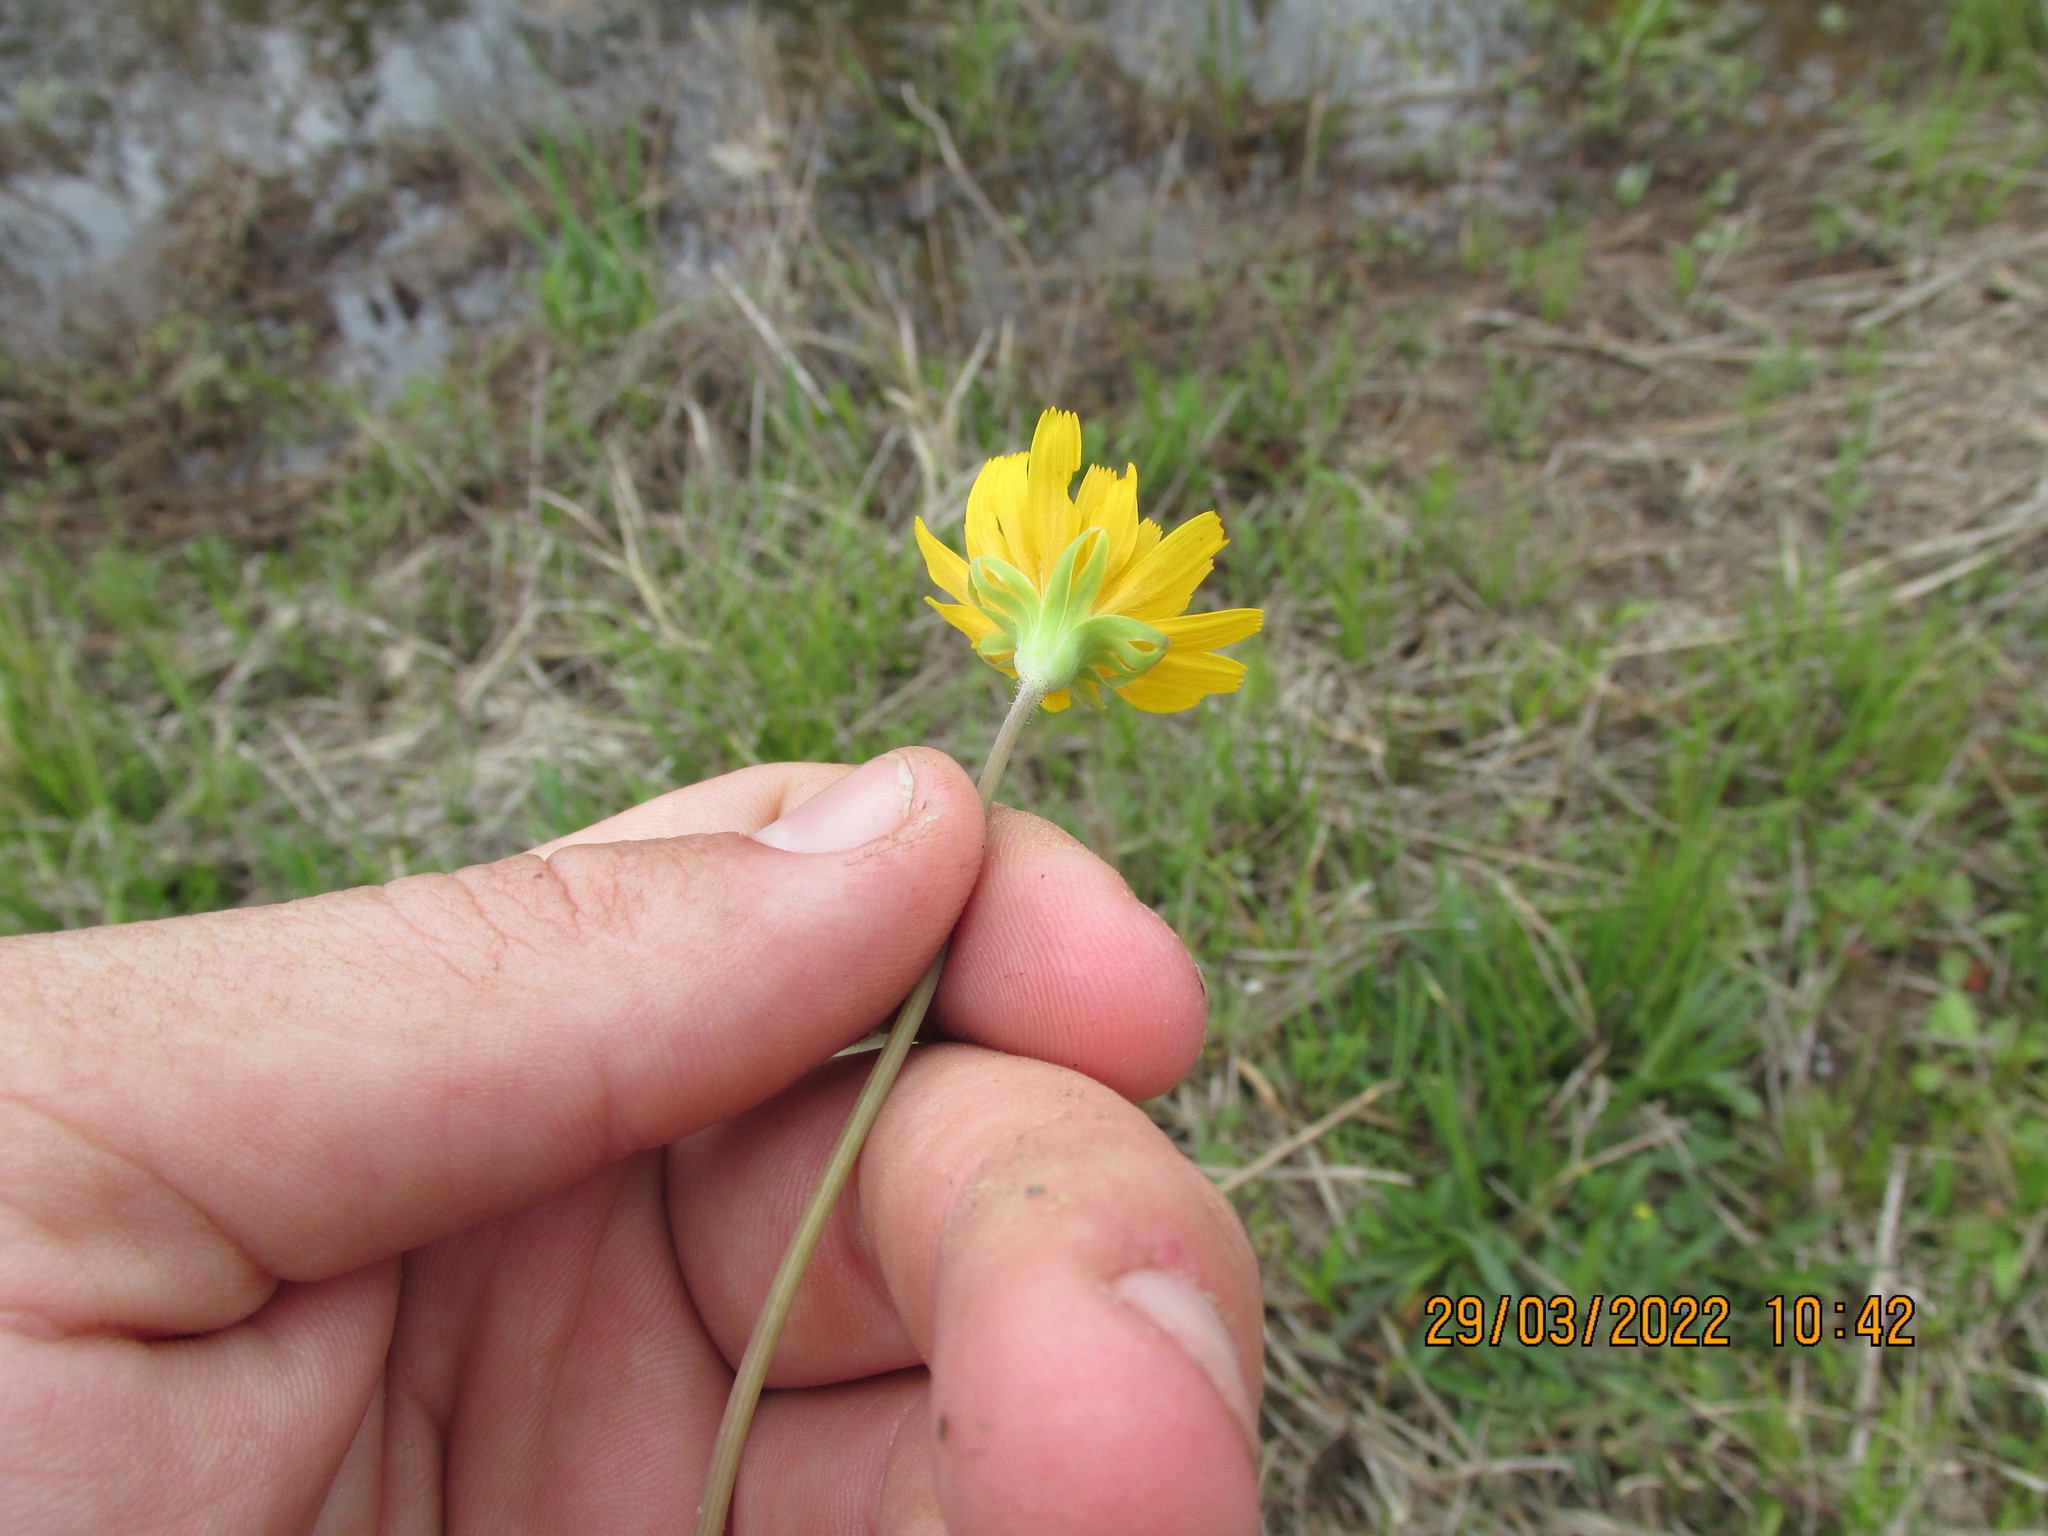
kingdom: Plantae
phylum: Tracheophyta
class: Magnoliopsida
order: Asterales
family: Asteraceae
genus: Krigia
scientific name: Krigia virginica
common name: Virginia dwarf-dandelion
